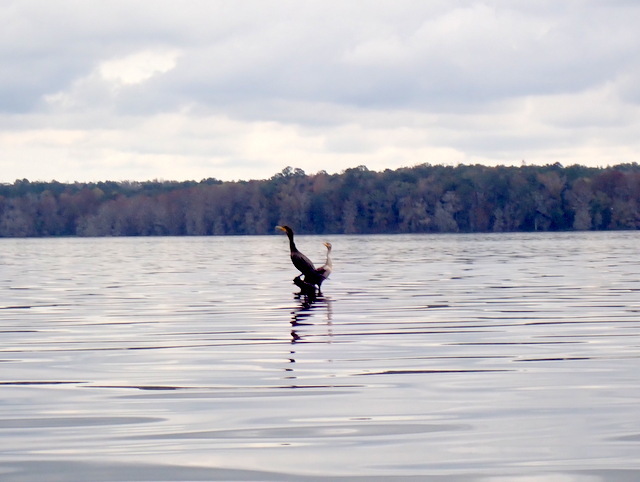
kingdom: Animalia
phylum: Chordata
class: Aves
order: Suliformes
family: Phalacrocoracidae
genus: Phalacrocorax
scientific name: Phalacrocorax auritus
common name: Double-crested cormorant
